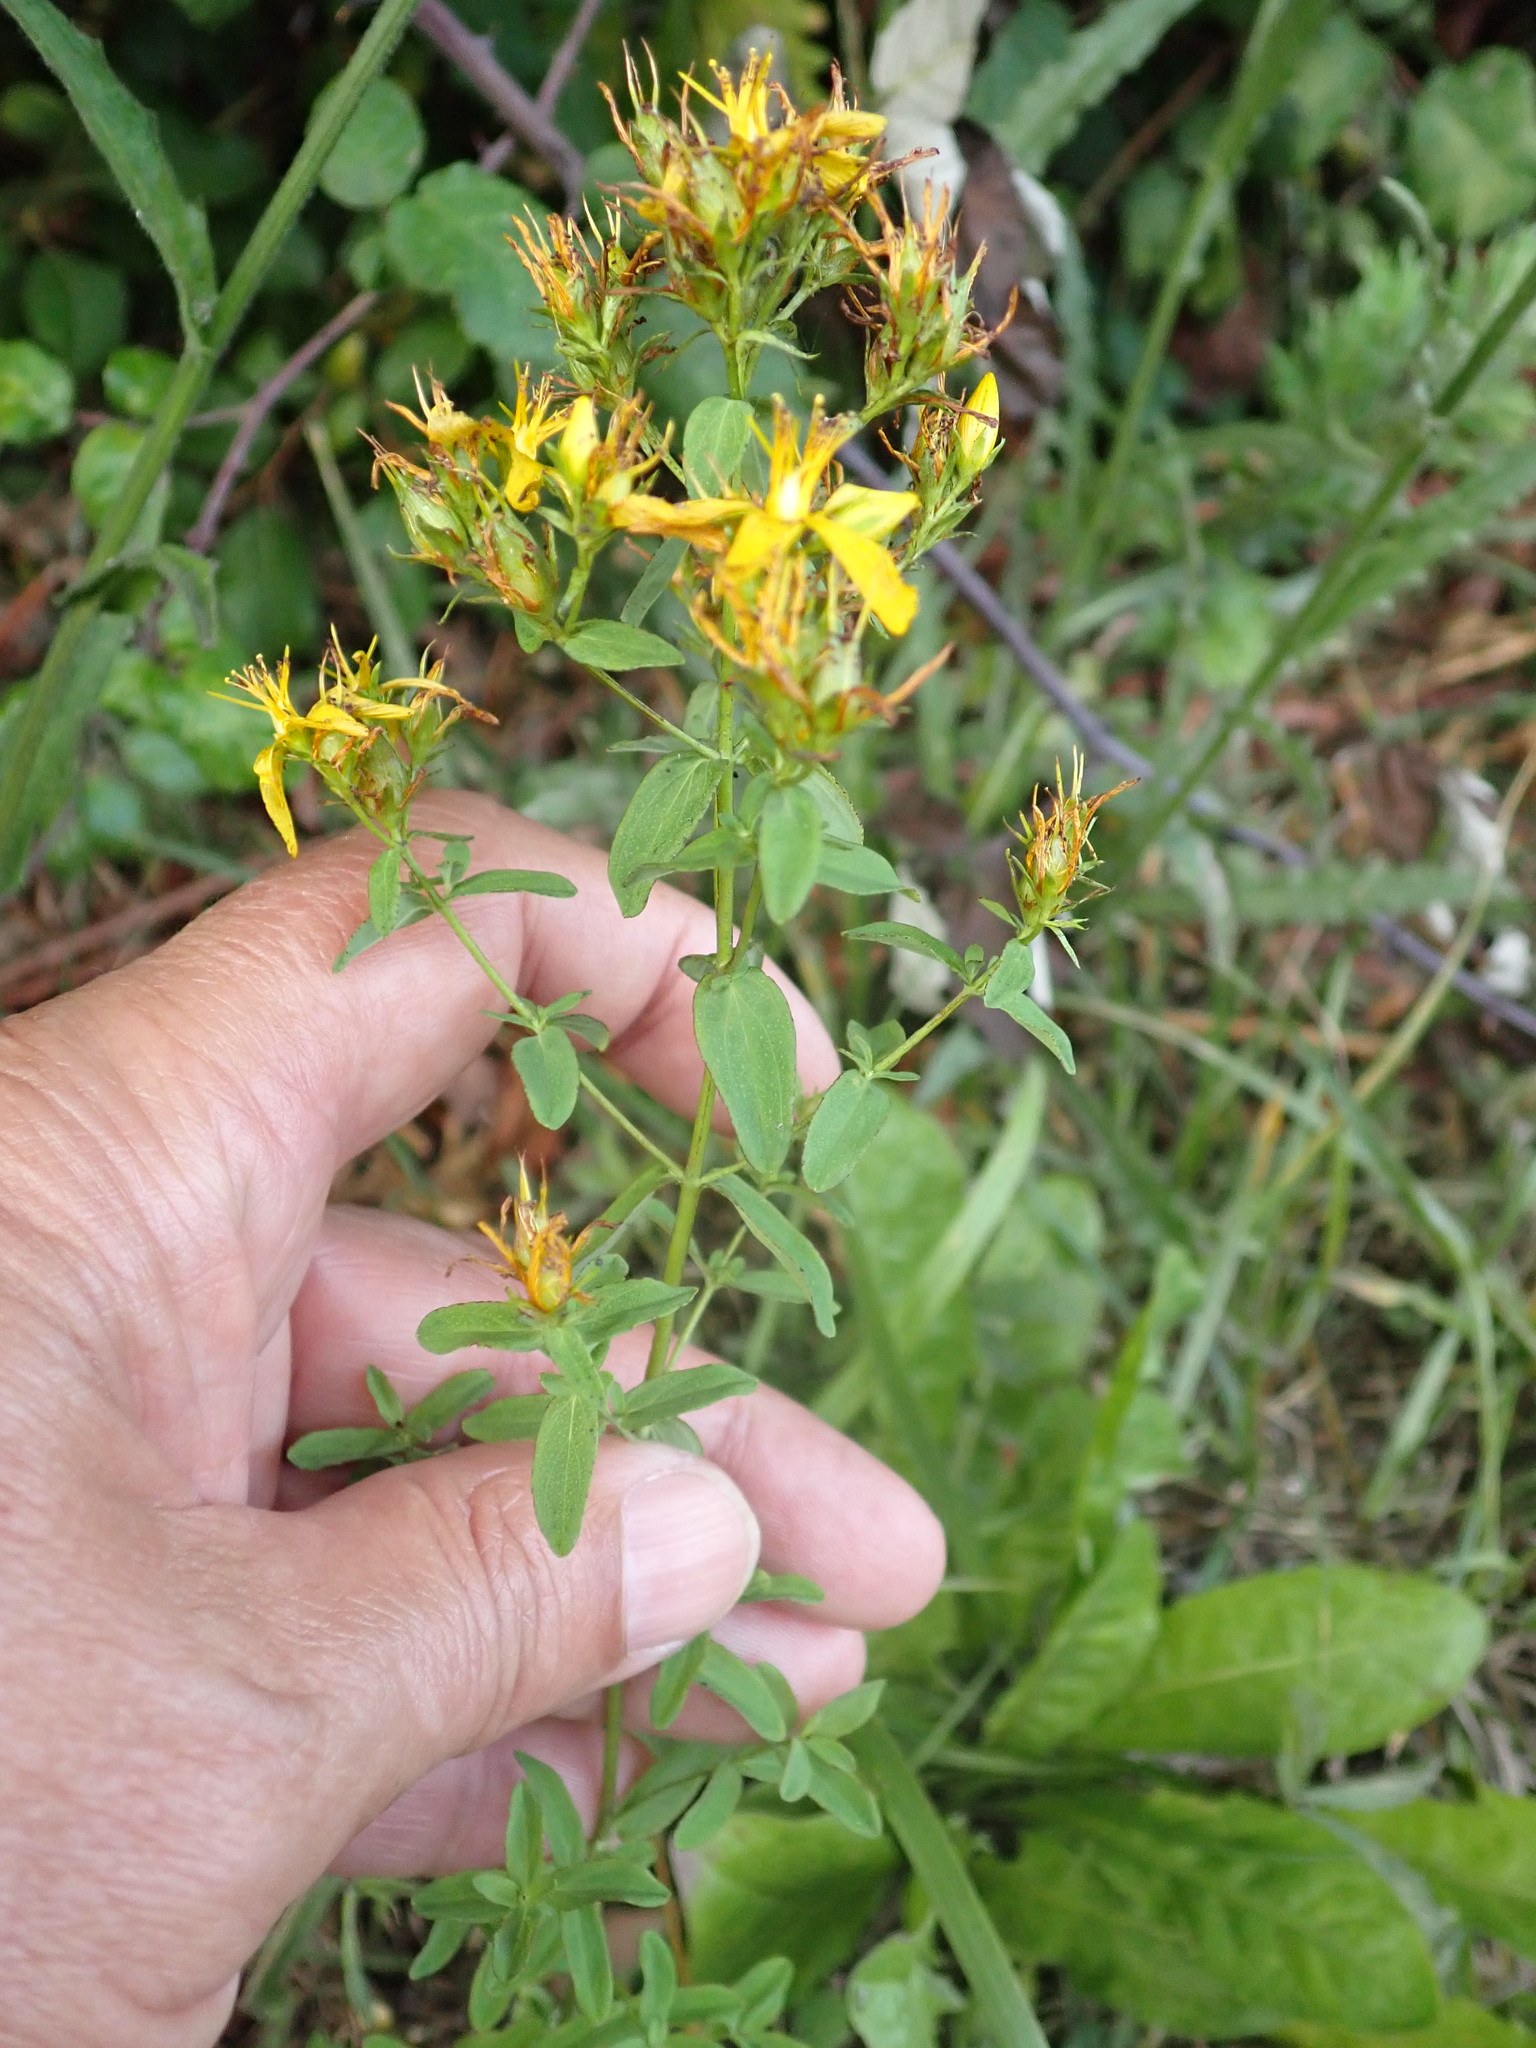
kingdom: Plantae
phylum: Tracheophyta
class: Magnoliopsida
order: Malpighiales
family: Hypericaceae
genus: Hypericum
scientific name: Hypericum perforatum
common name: Common st. johnswort
